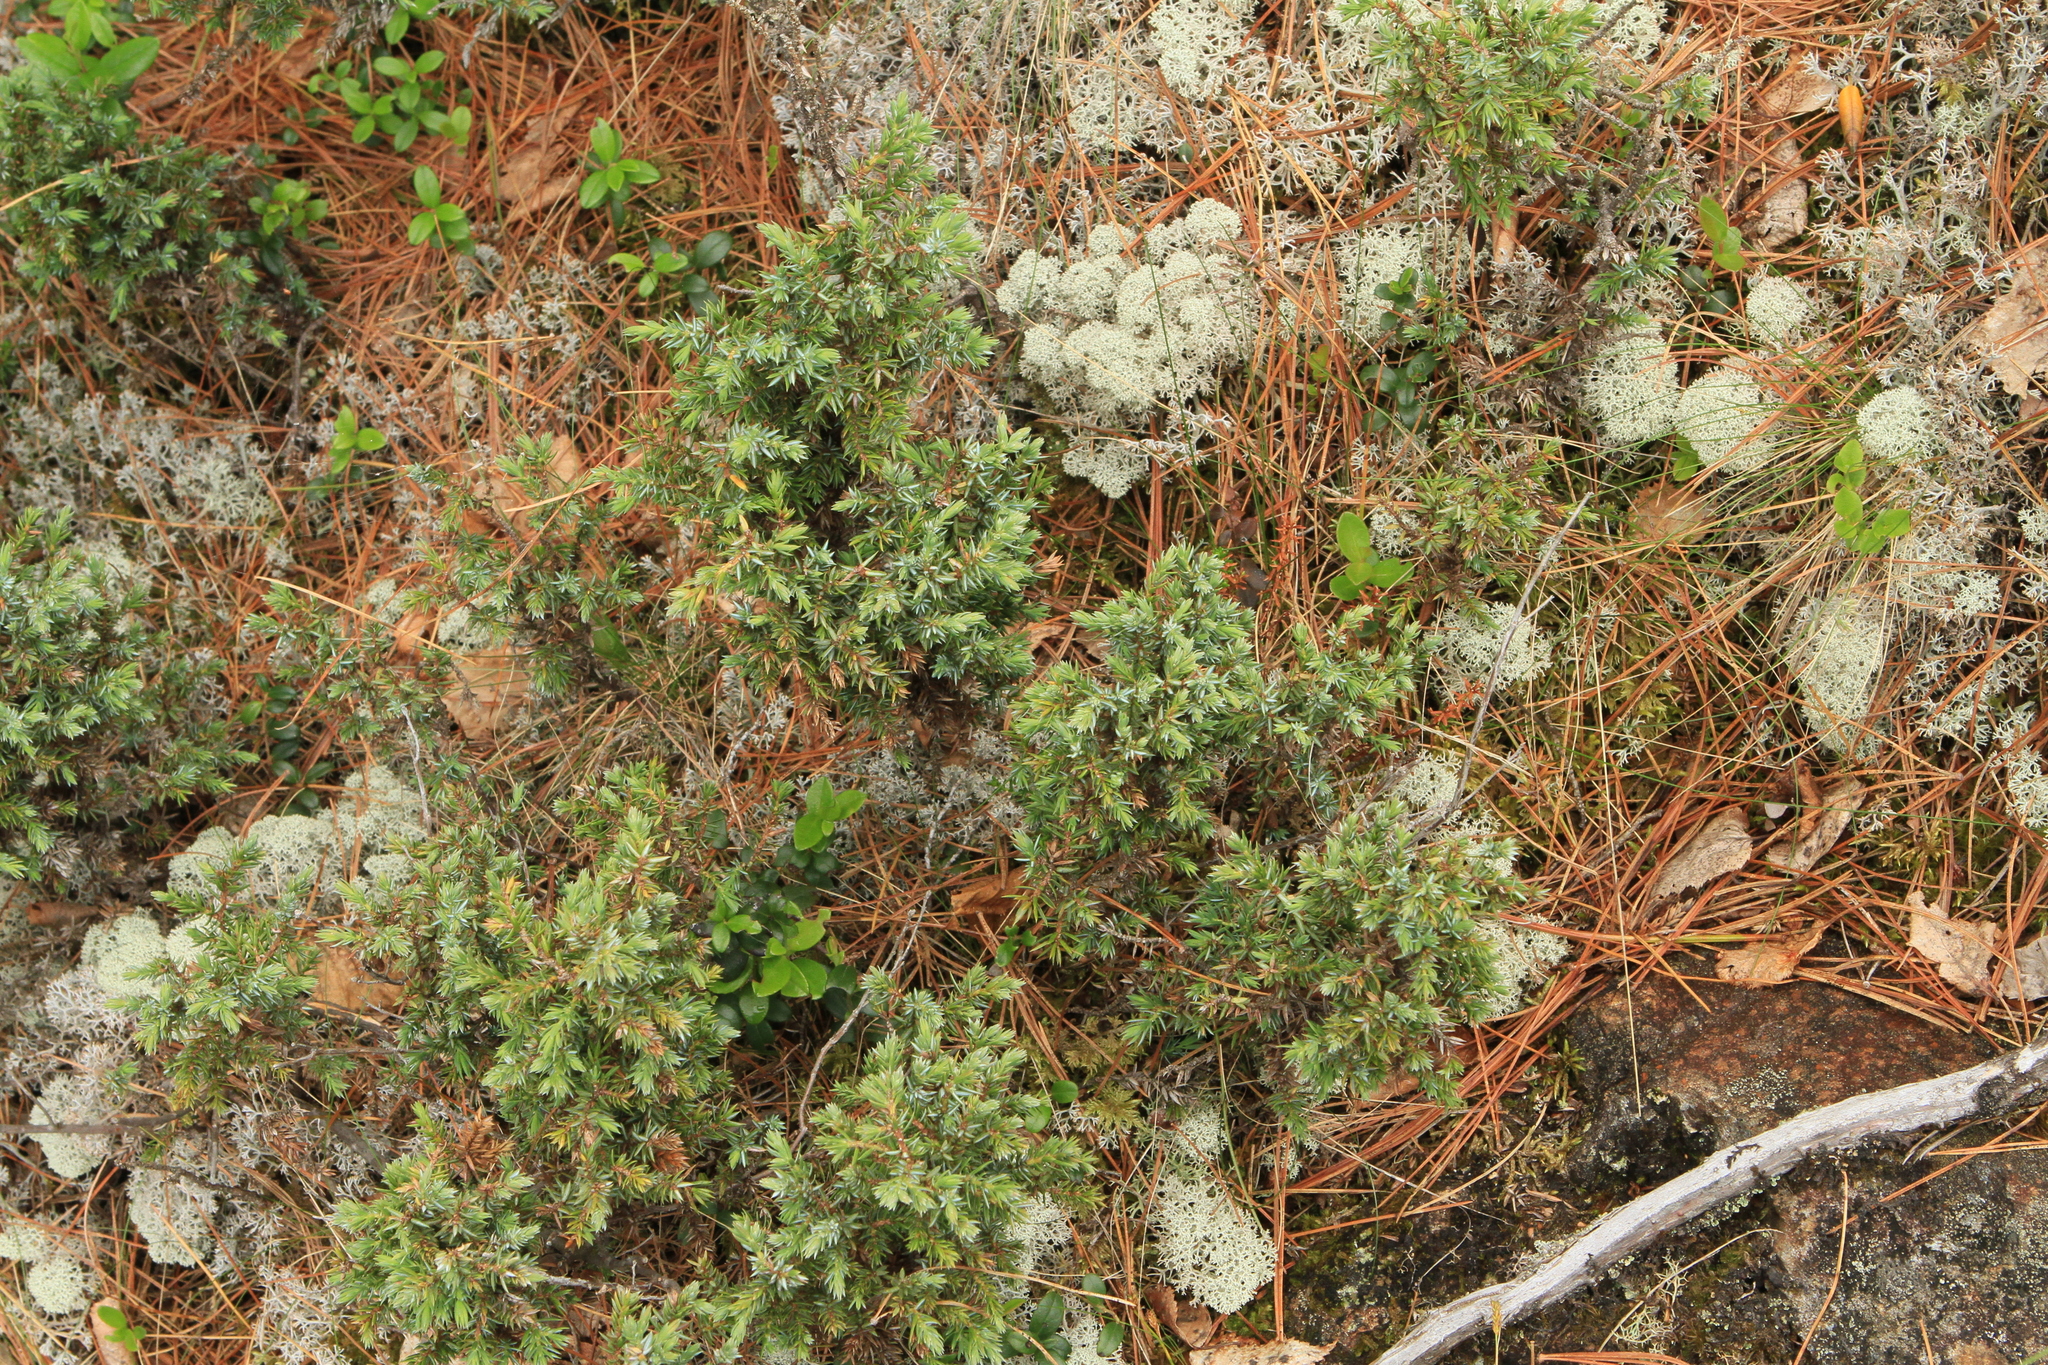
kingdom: Plantae
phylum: Tracheophyta
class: Pinopsida
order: Pinales
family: Cupressaceae
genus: Juniperus
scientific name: Juniperus communis
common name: Common juniper
